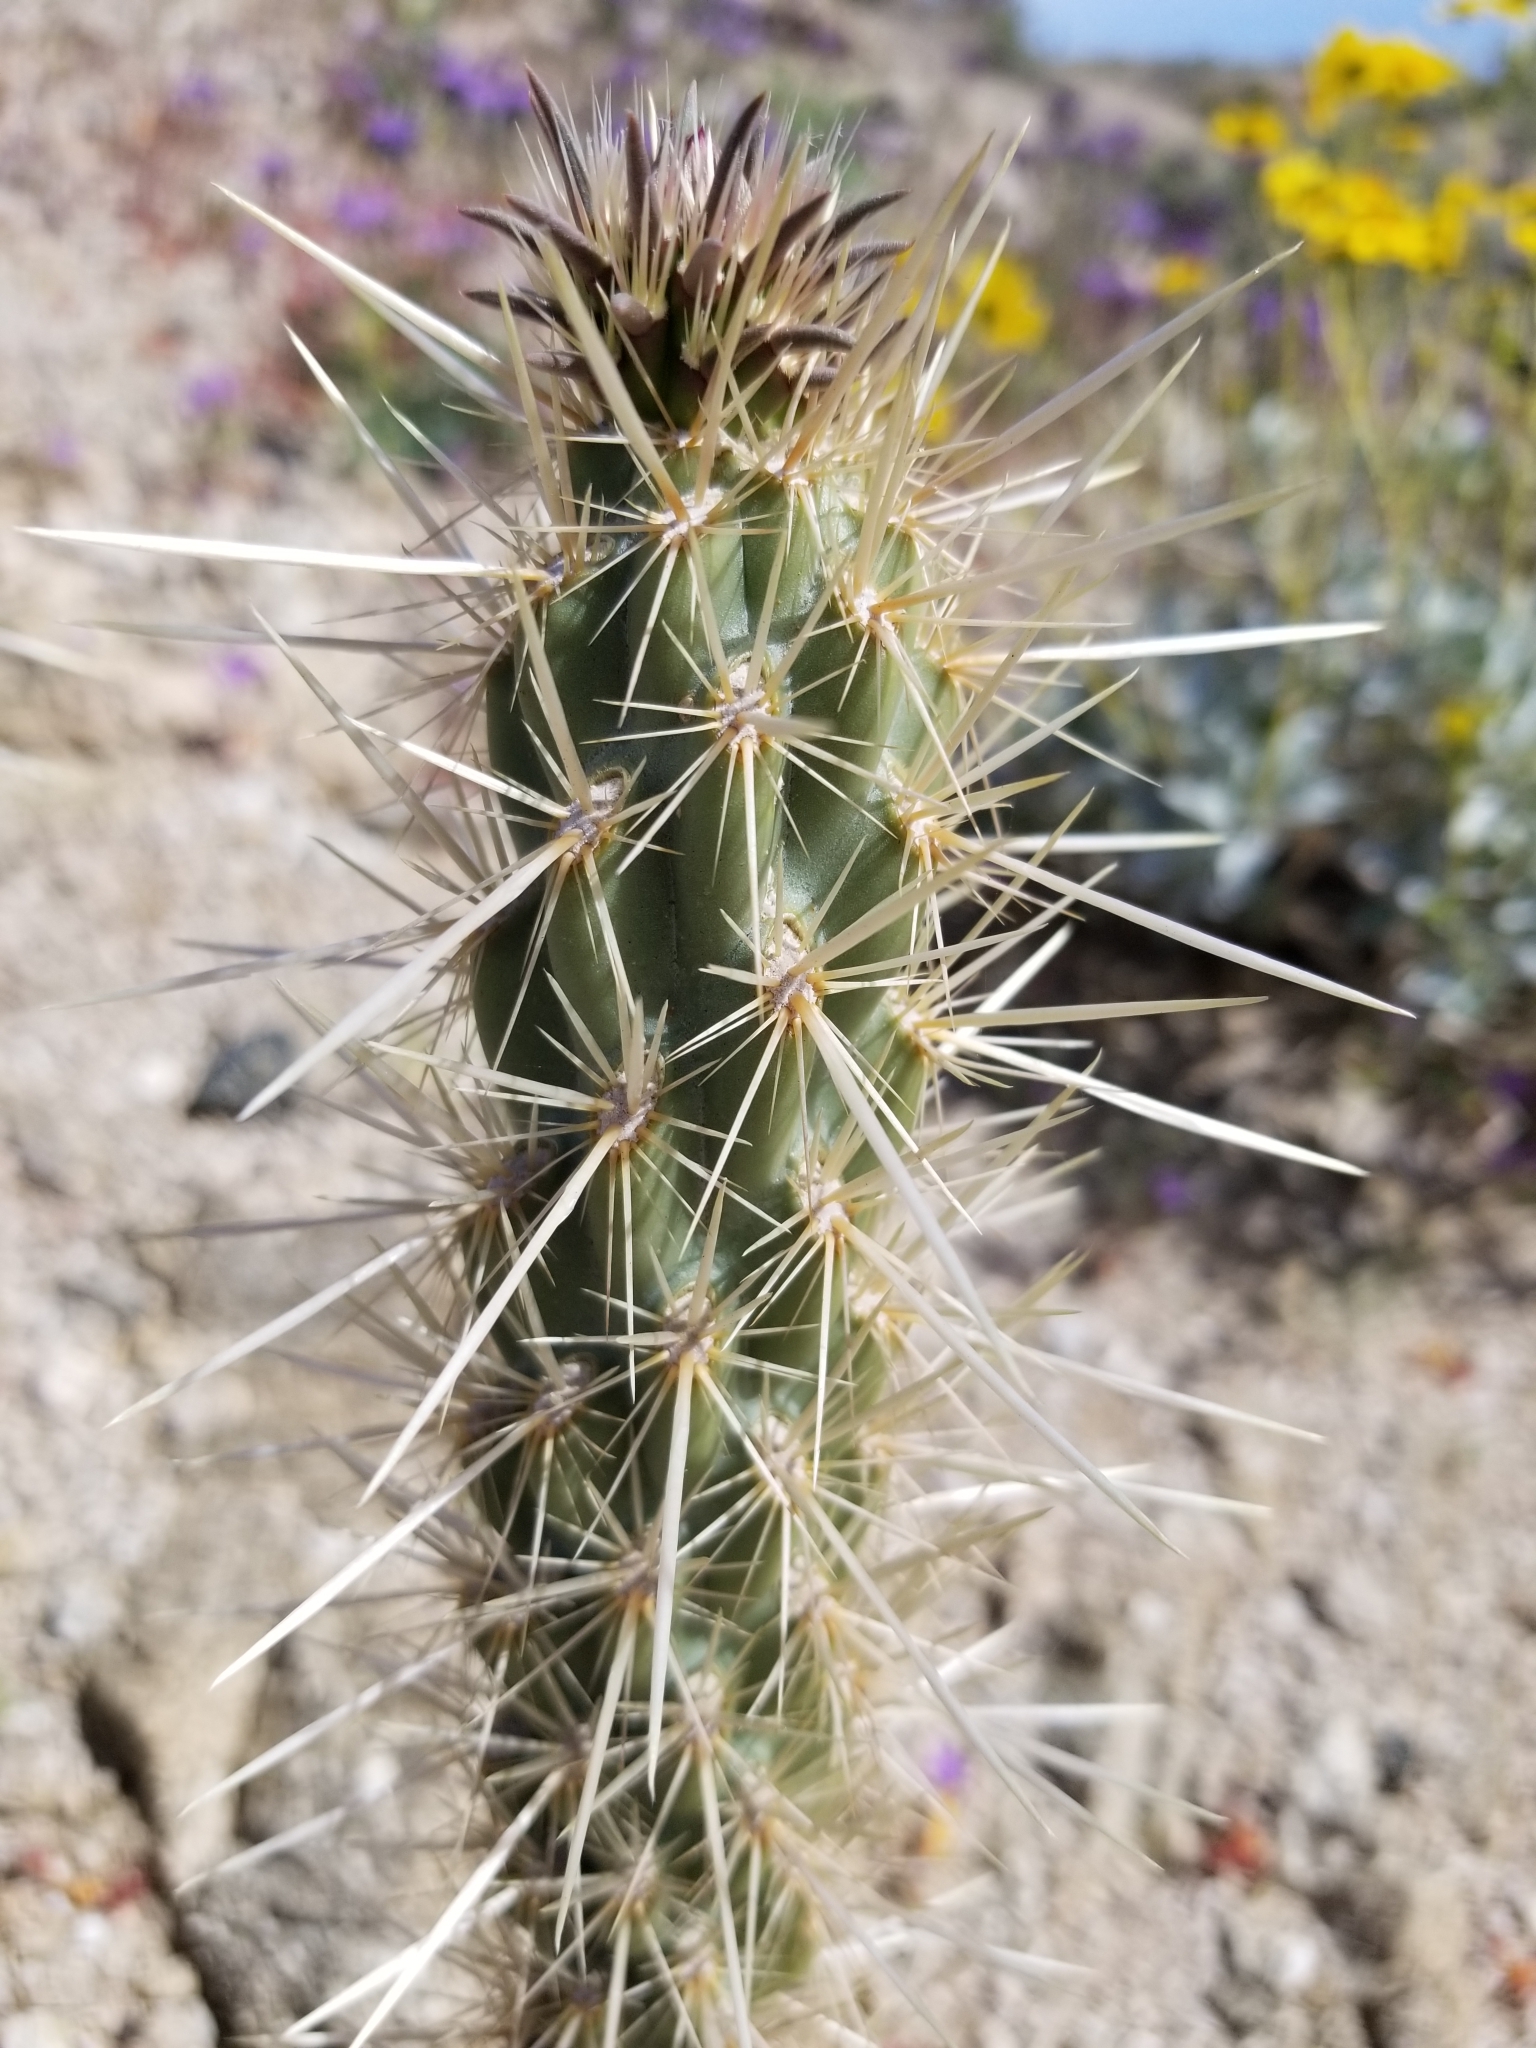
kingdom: Plantae
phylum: Tracheophyta
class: Magnoliopsida
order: Caryophyllales
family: Cactaceae
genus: Cylindropuntia
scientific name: Cylindropuntia ganderi
